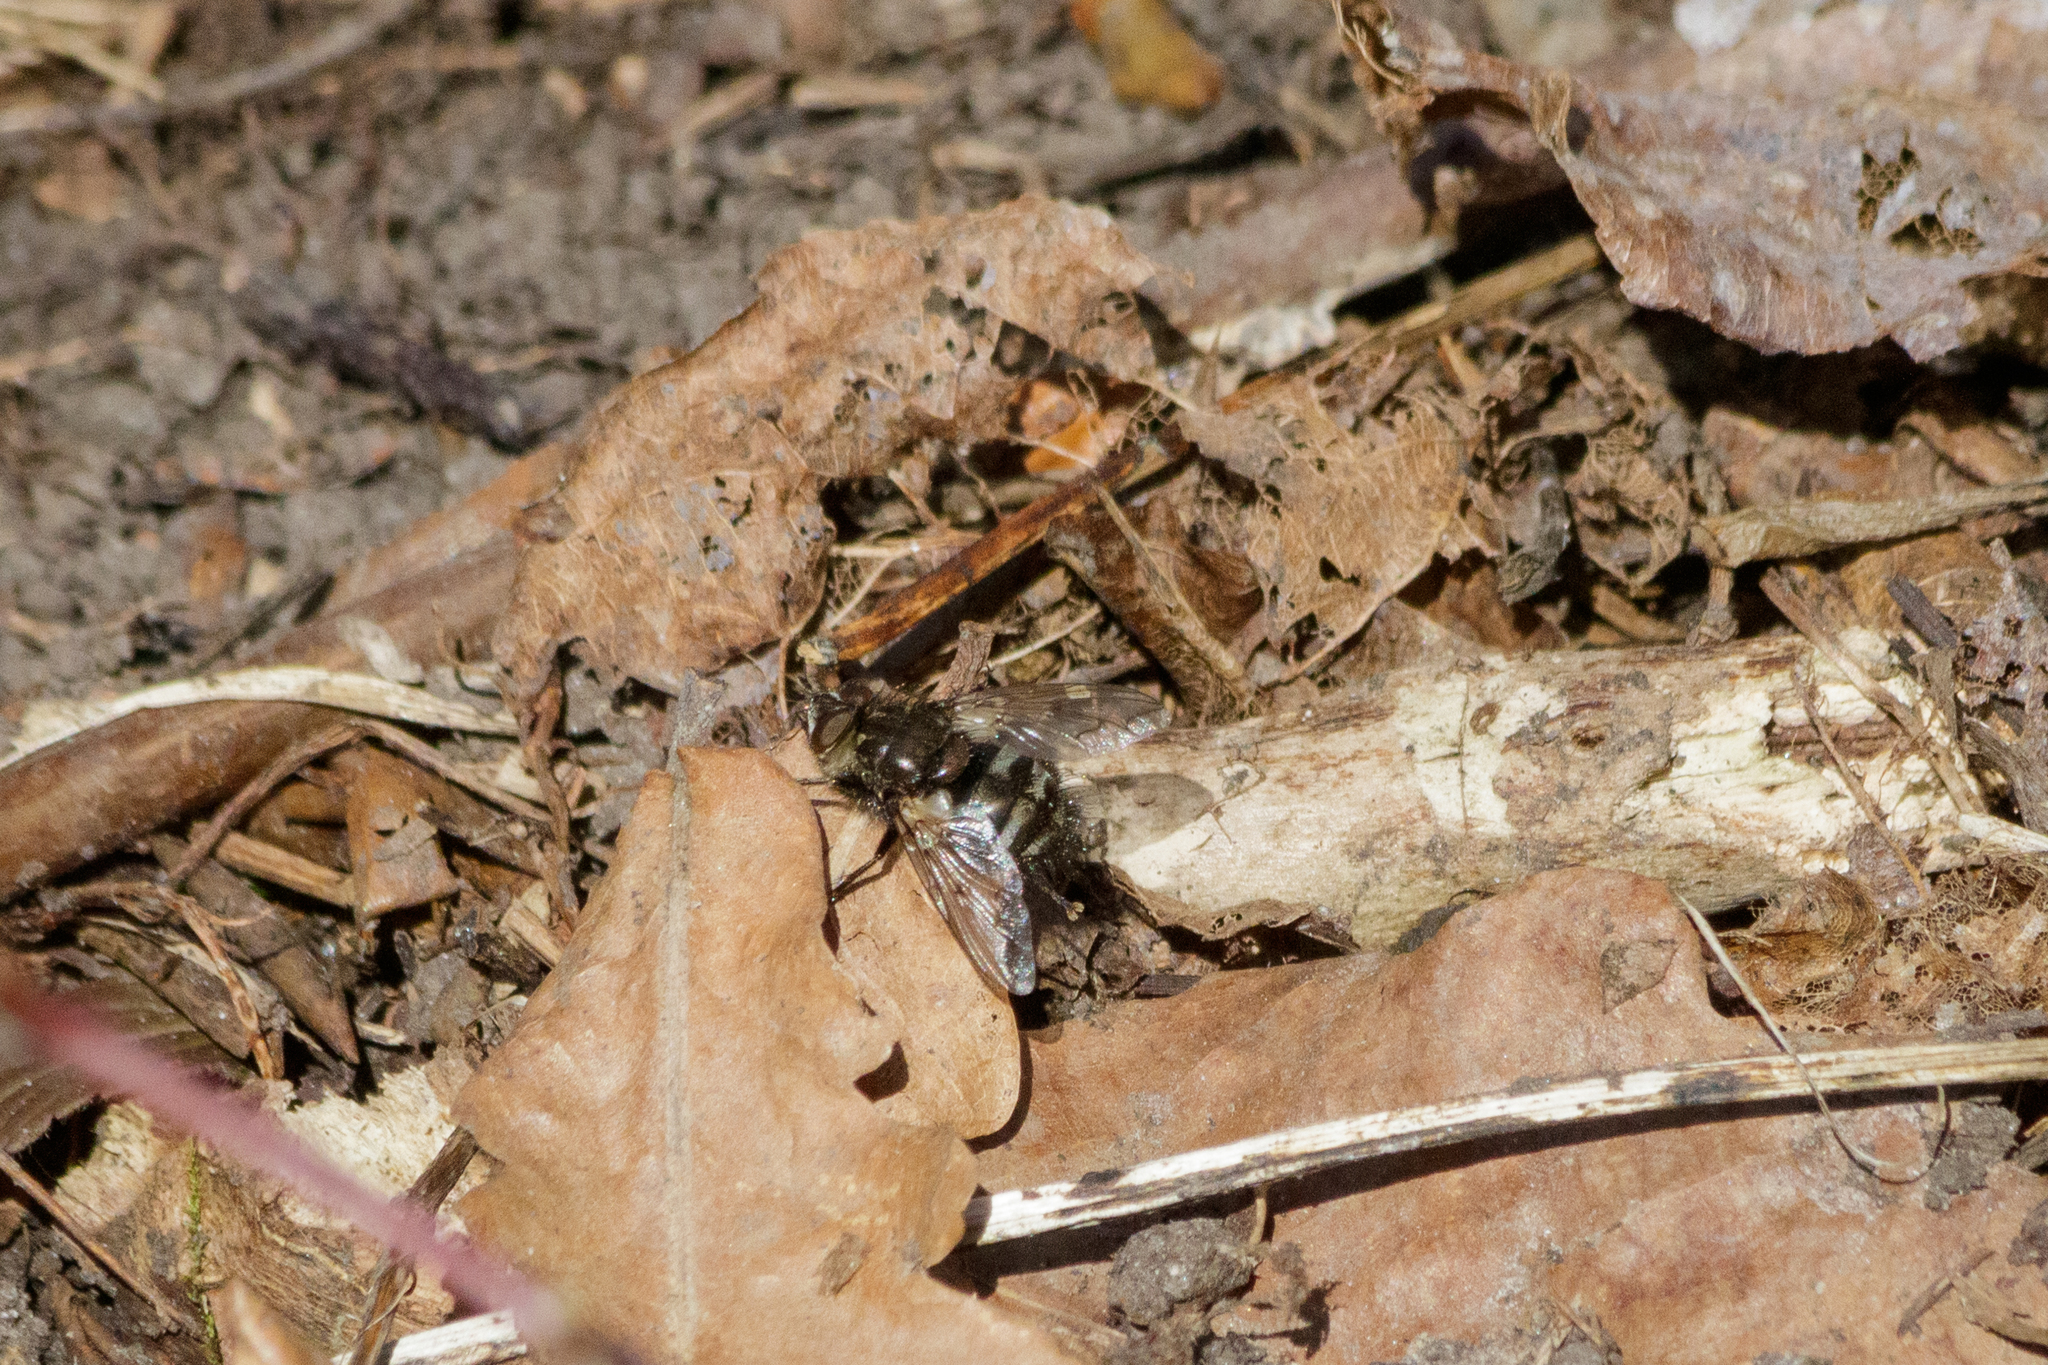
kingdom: Animalia
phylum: Arthropoda
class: Insecta
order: Diptera
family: Tachinidae
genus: Panzeria
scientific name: Panzeria puparum
